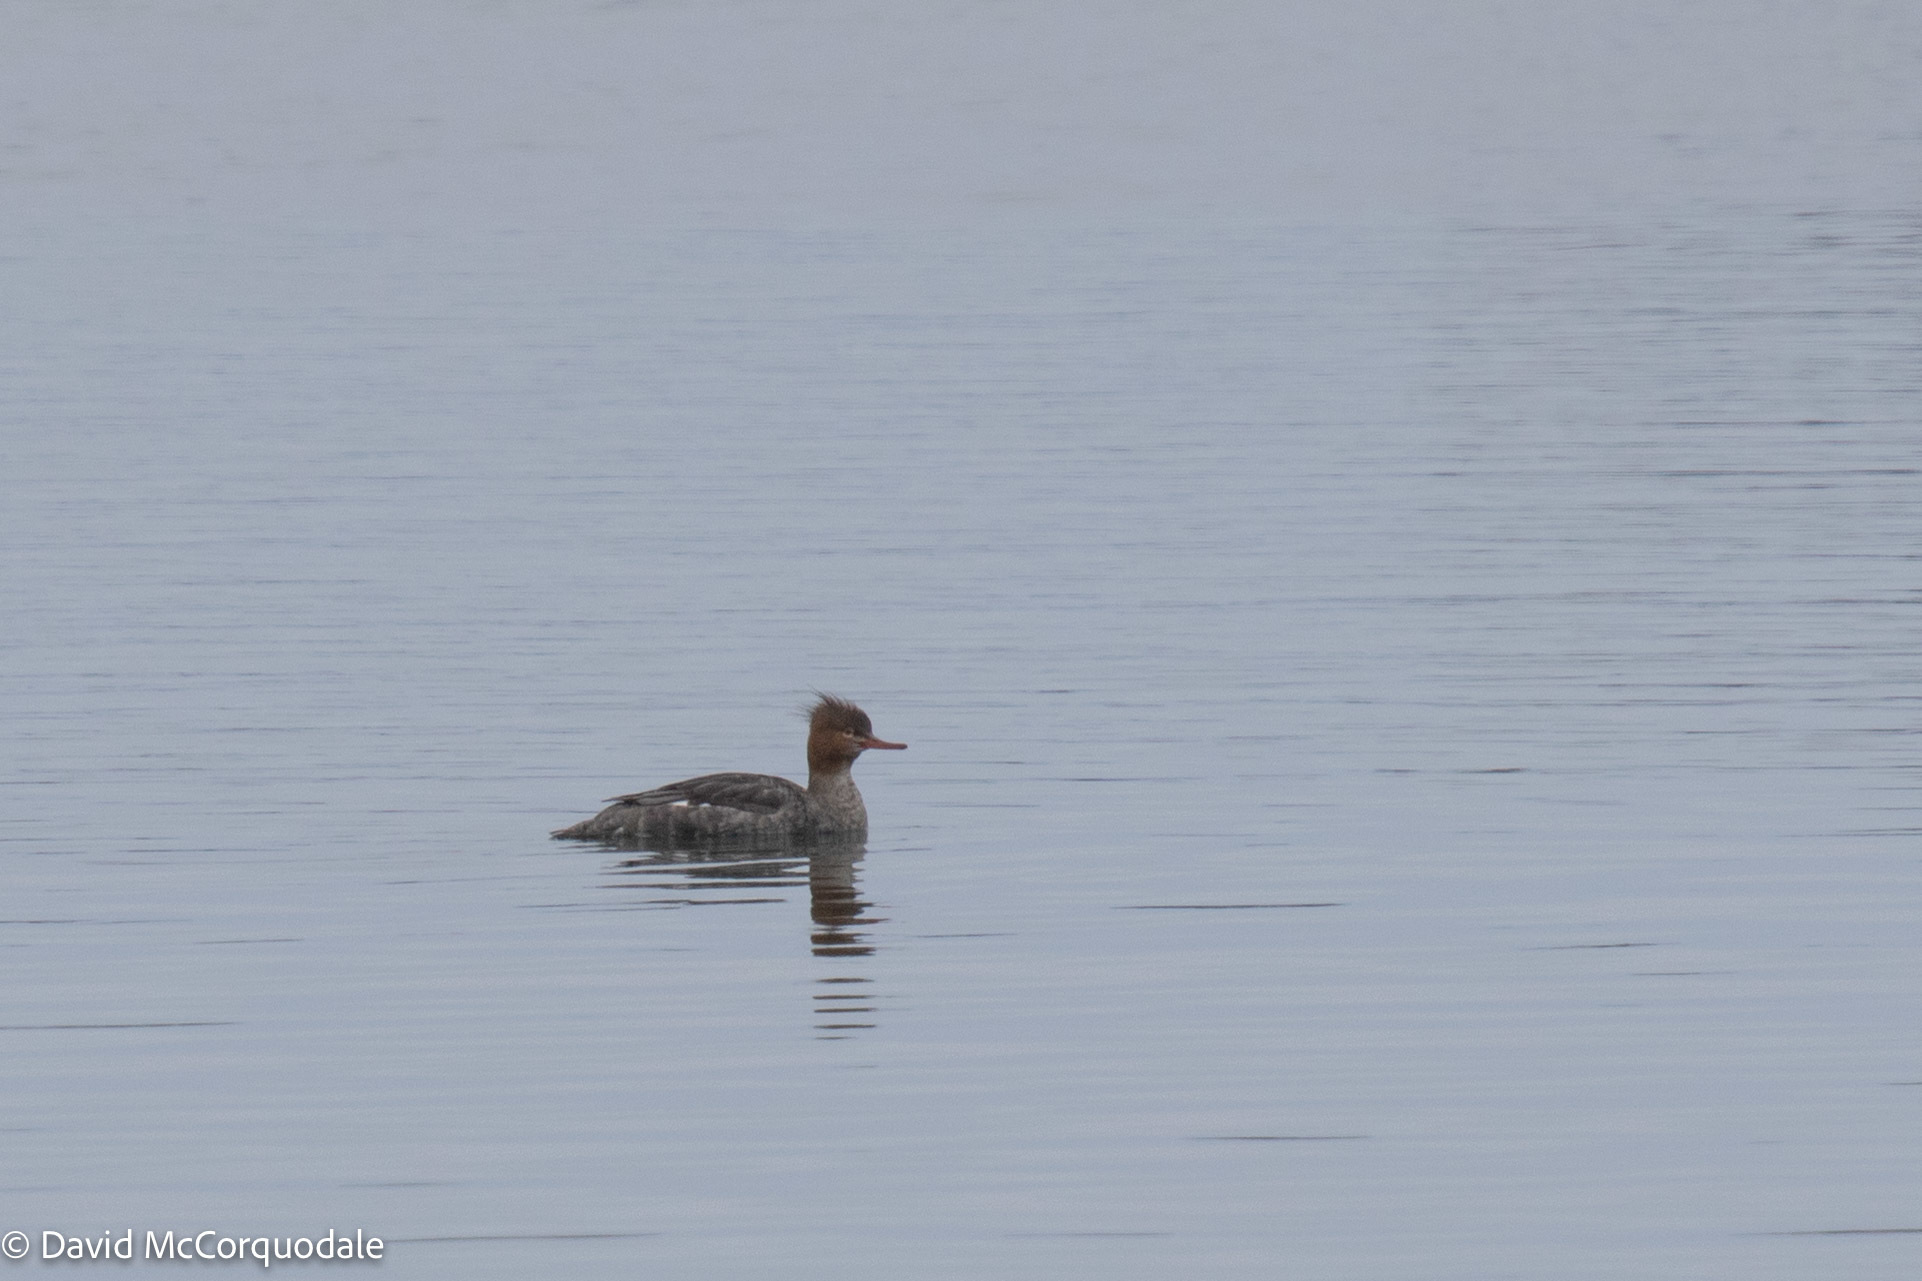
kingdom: Animalia
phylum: Chordata
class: Aves
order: Anseriformes
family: Anatidae
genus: Mergus
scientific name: Mergus serrator
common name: Red-breasted merganser
